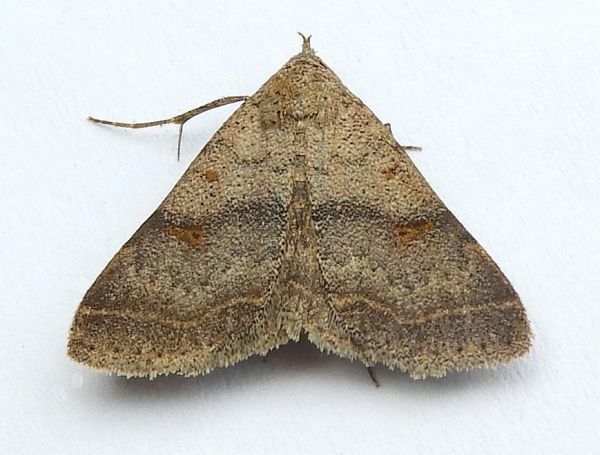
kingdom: Animalia
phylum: Arthropoda
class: Insecta
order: Lepidoptera
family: Erebidae
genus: Bleptina
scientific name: Bleptina caradrinalis
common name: Bent-winged owlet
